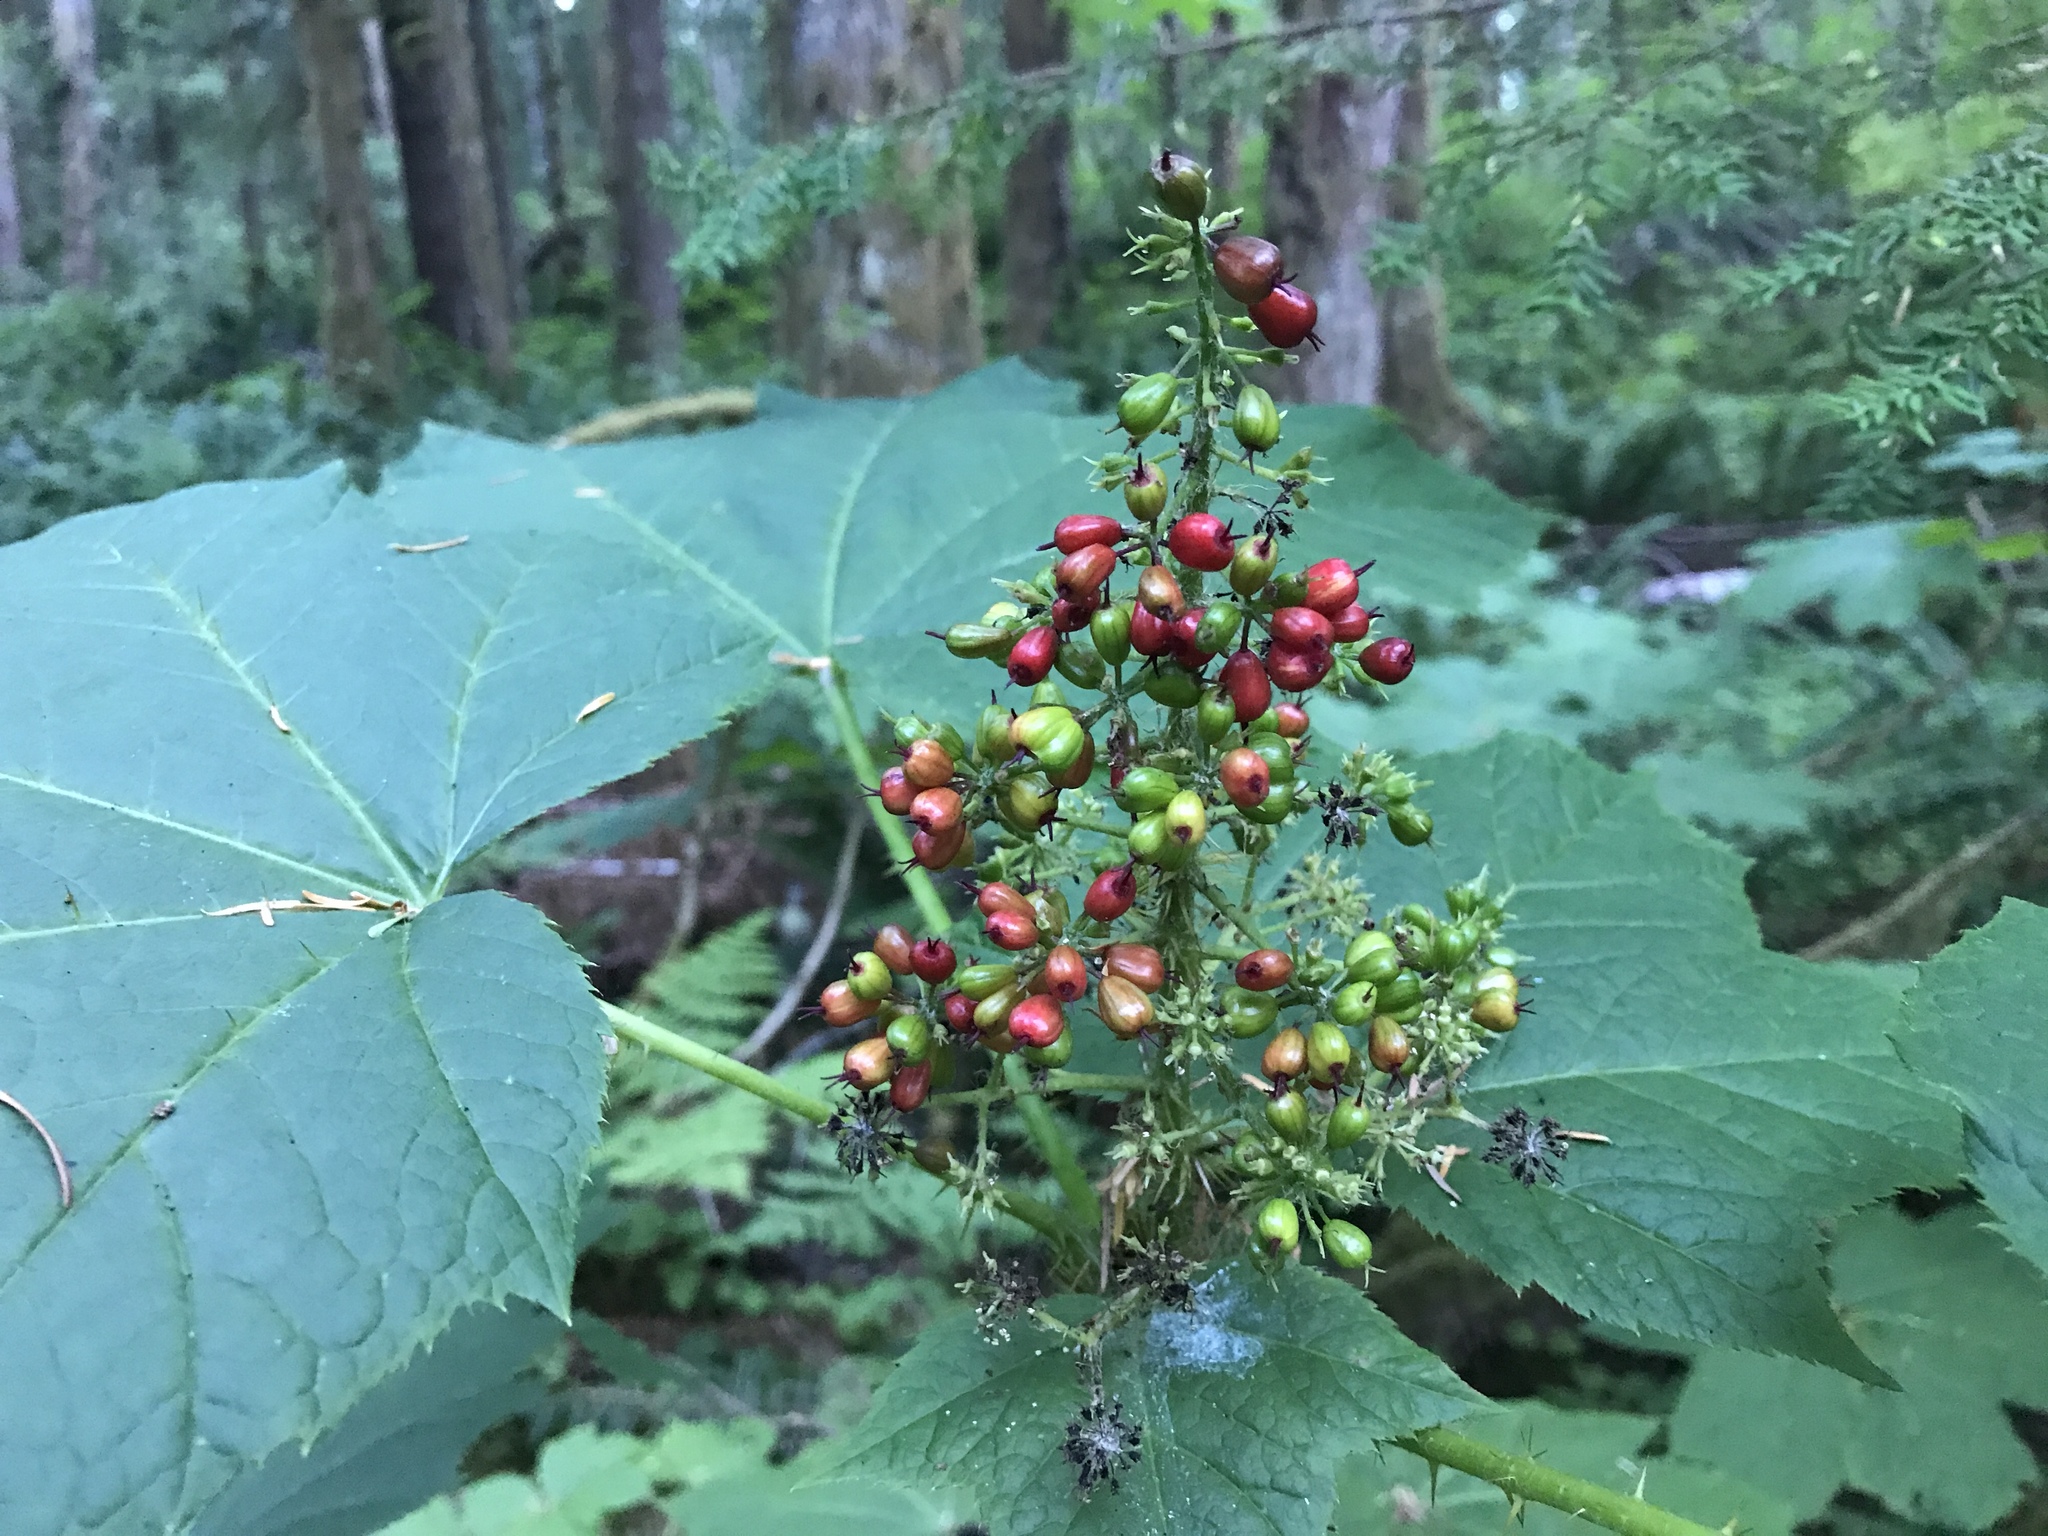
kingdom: Plantae
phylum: Tracheophyta
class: Magnoliopsida
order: Apiales
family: Araliaceae
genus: Oplopanax
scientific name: Oplopanax horridus
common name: Devil's walking-stick
